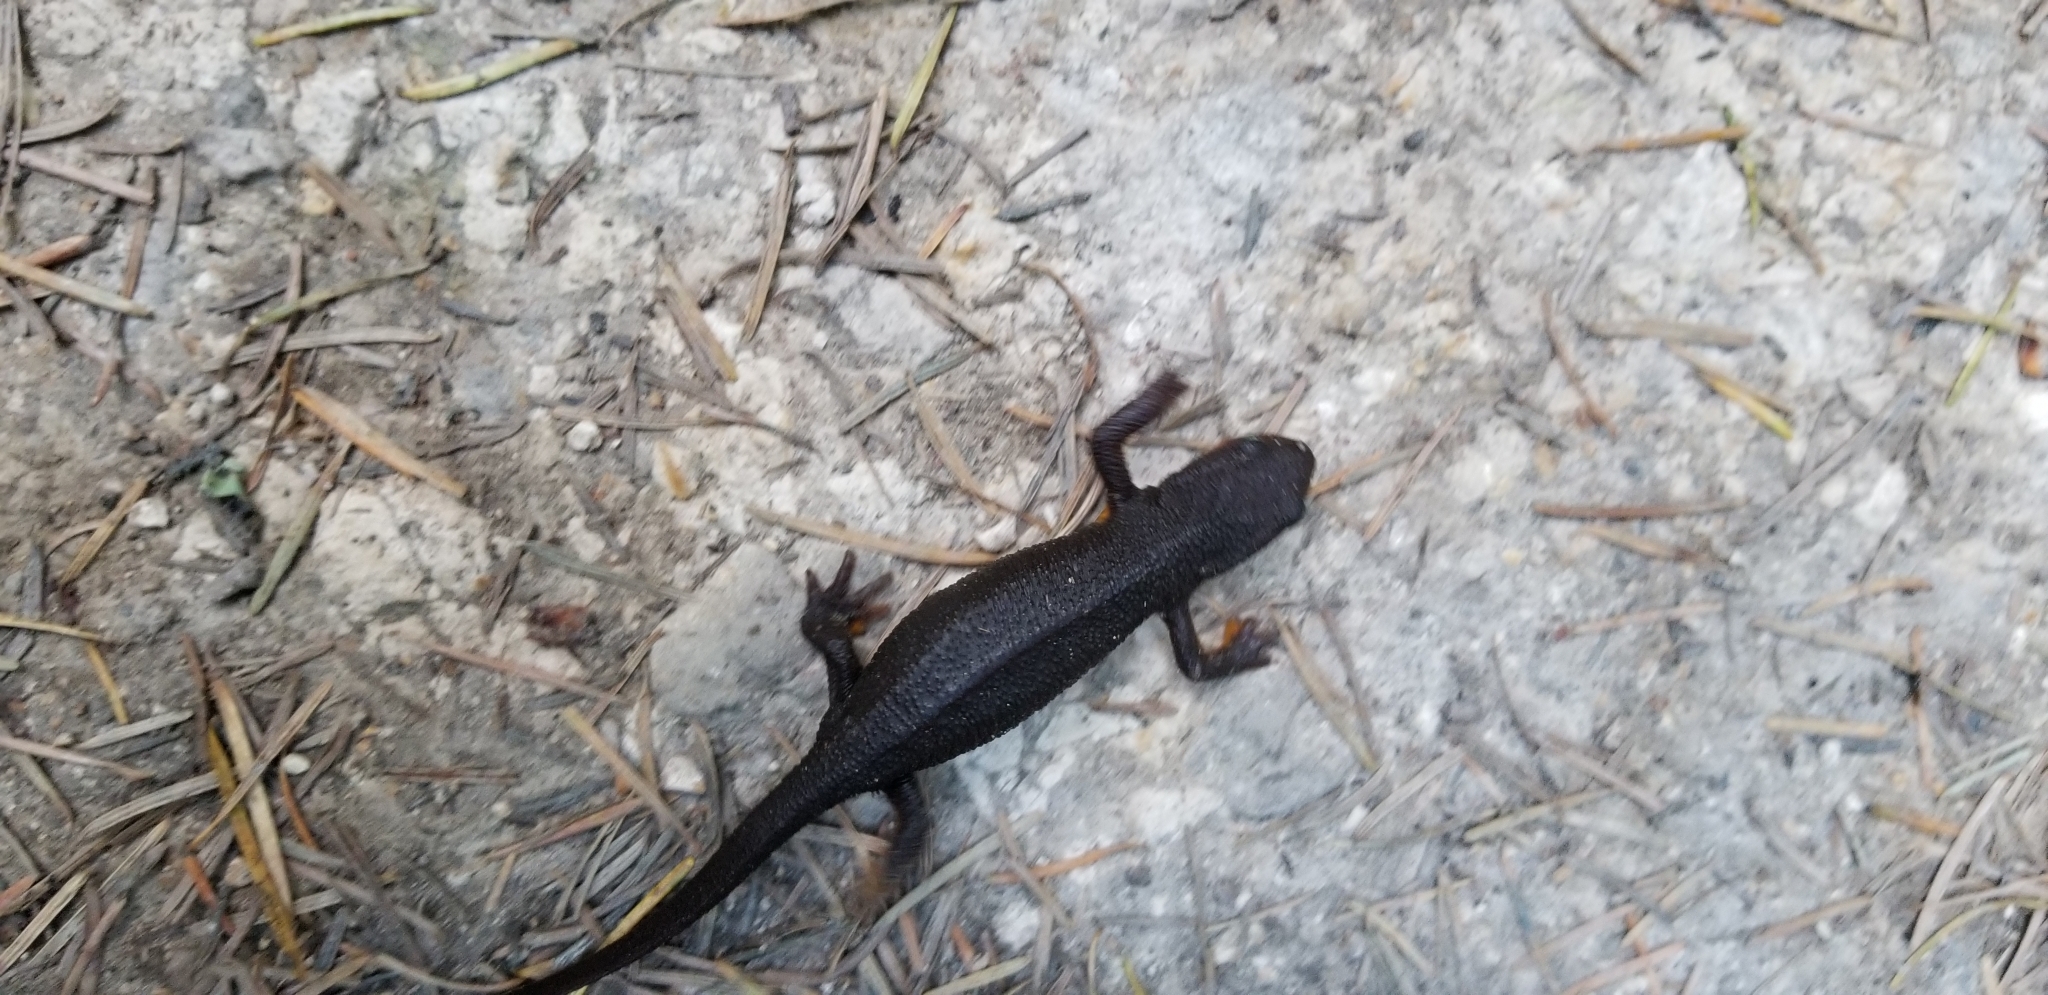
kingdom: Animalia
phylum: Chordata
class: Amphibia
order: Caudata
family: Salamandridae
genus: Taricha
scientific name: Taricha granulosa
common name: Roughskin newt
